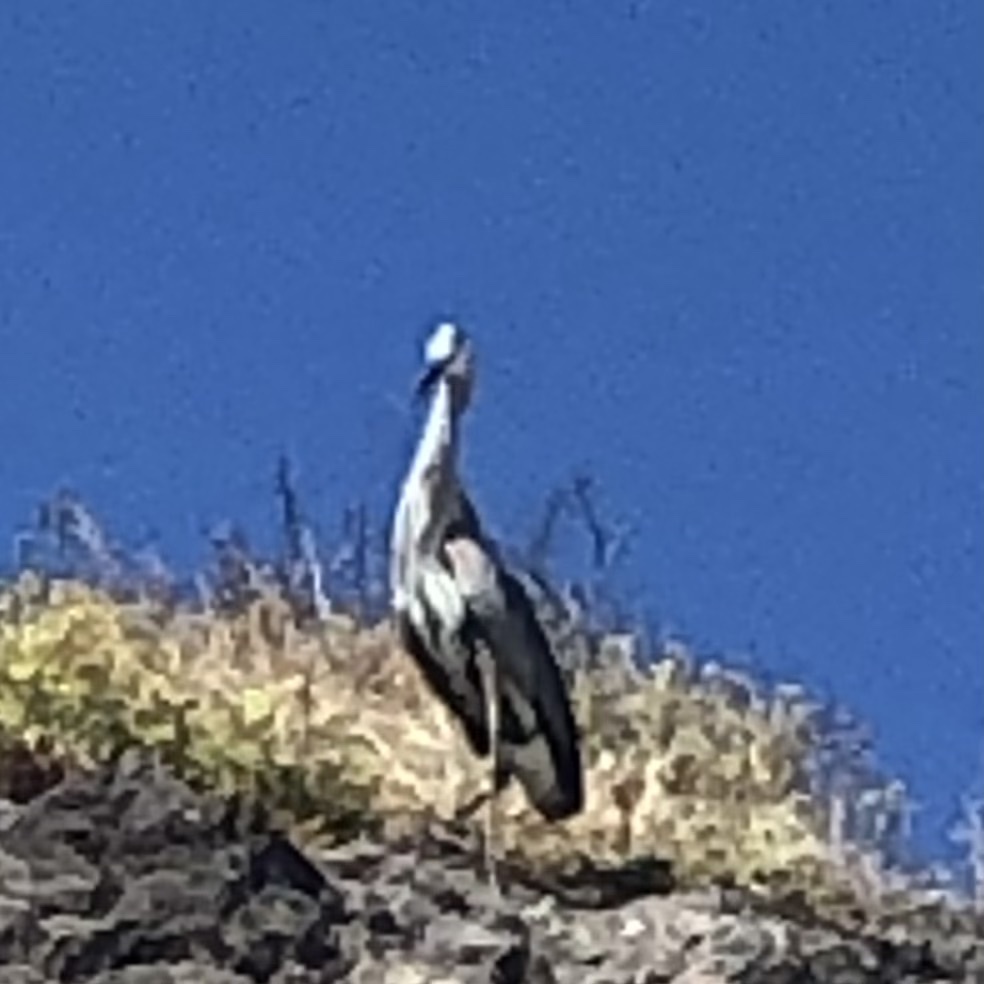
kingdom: Animalia
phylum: Chordata
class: Aves
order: Pelecaniformes
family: Ardeidae
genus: Ardea
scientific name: Ardea herodias
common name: Great blue heron
